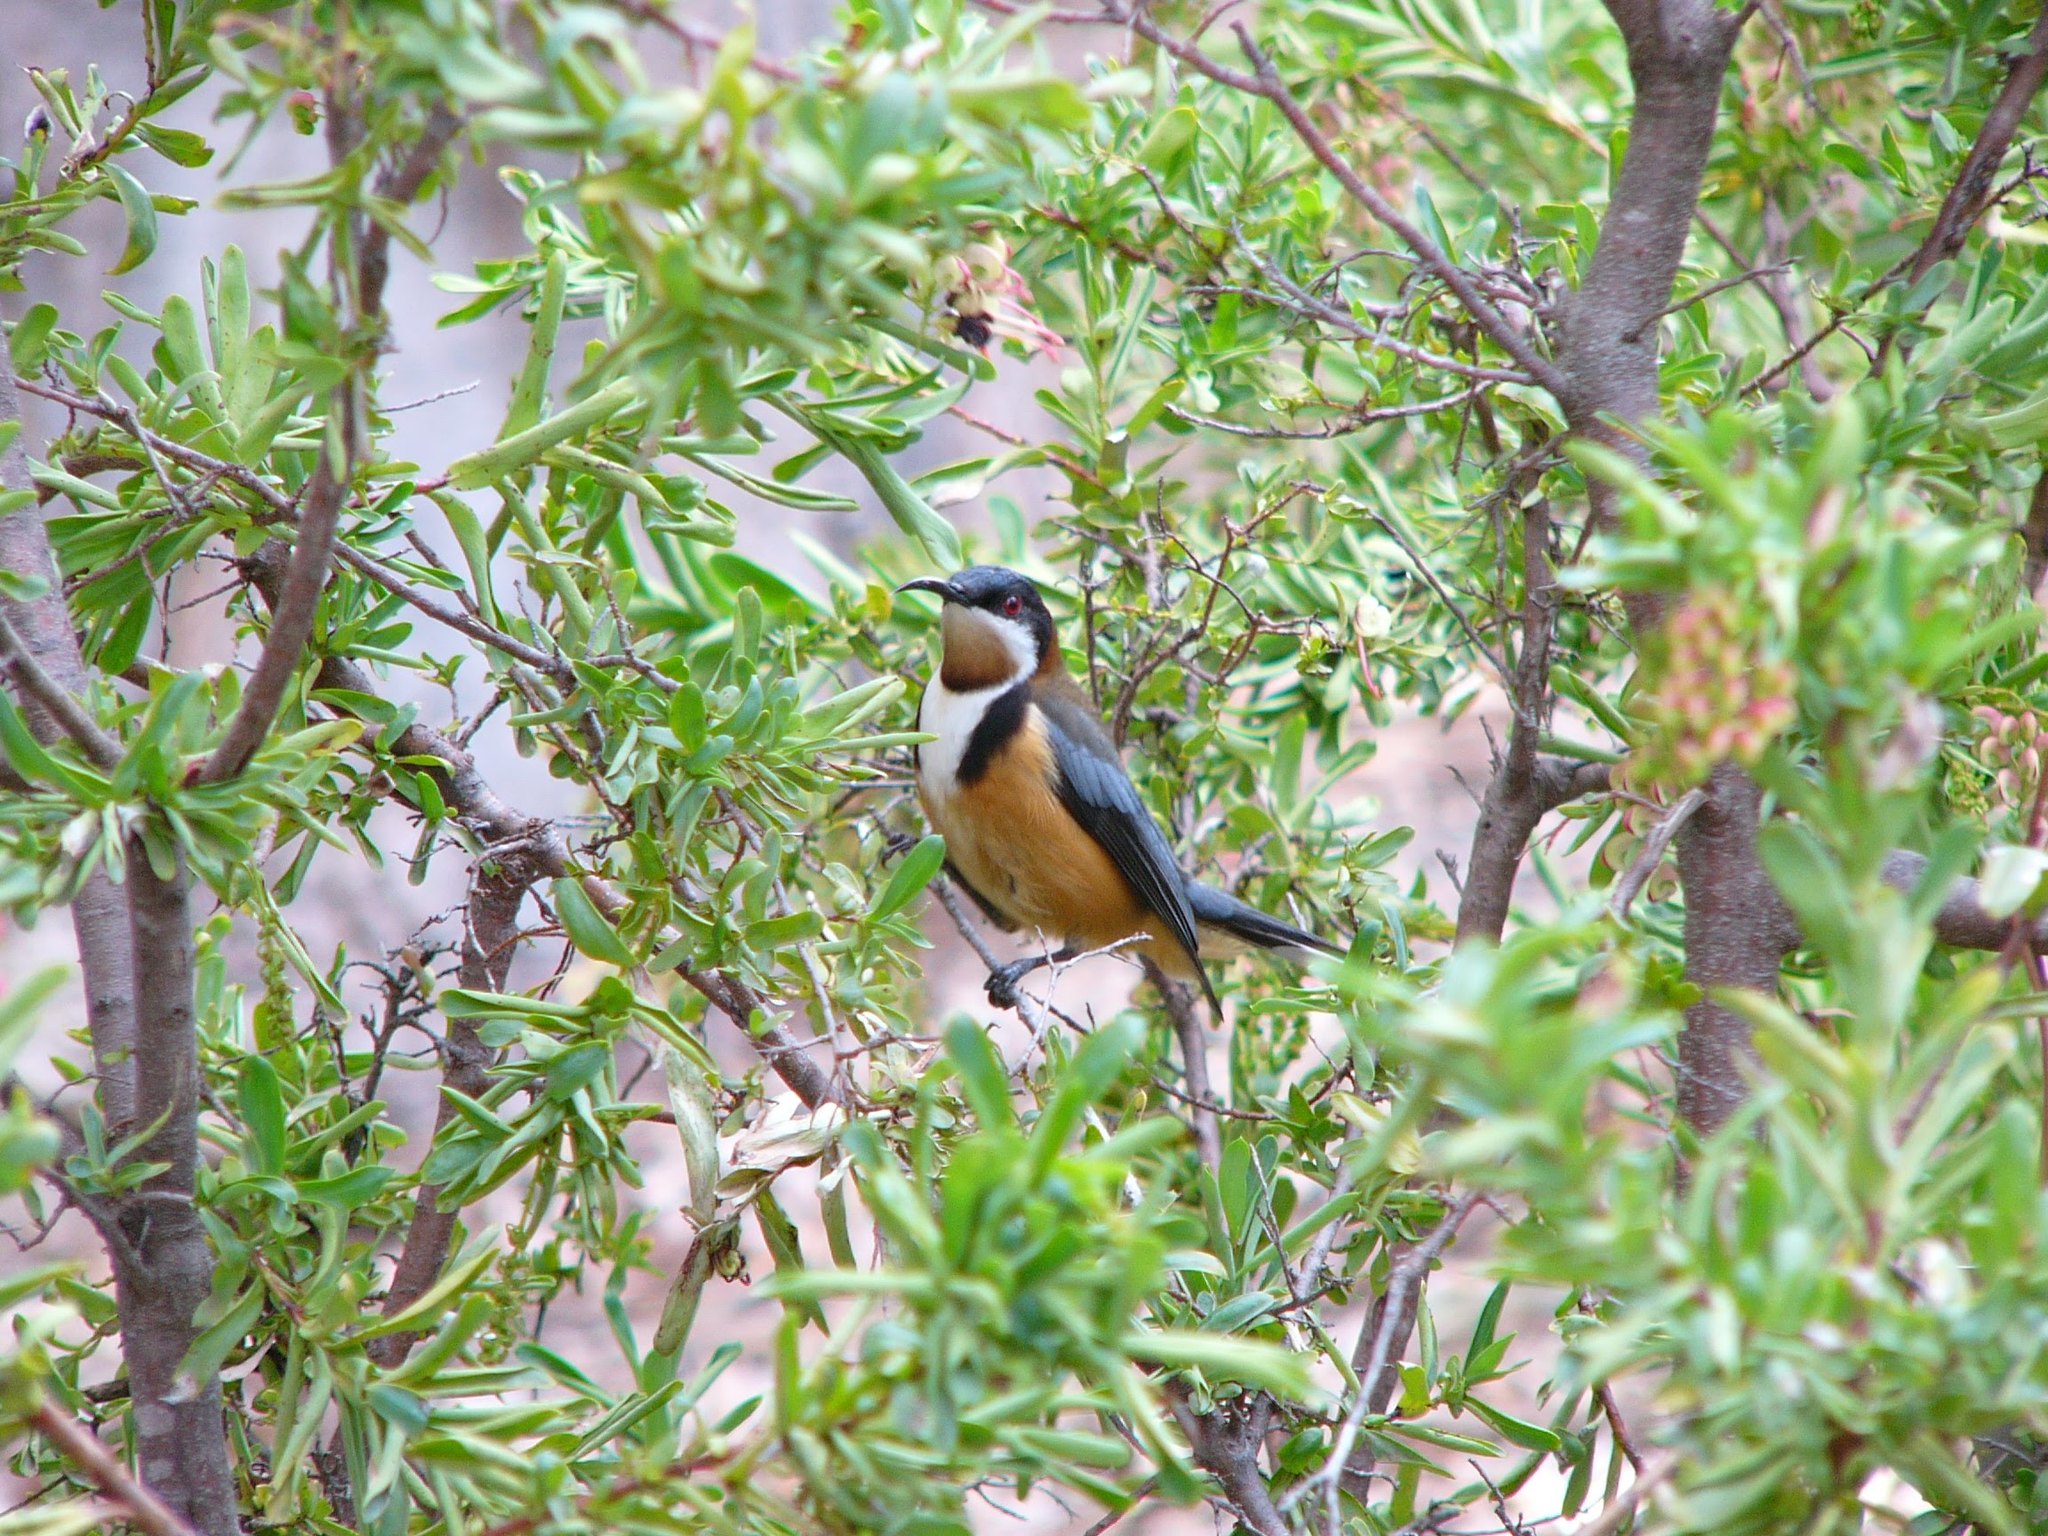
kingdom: Animalia
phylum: Chordata
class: Aves
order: Passeriformes
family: Meliphagidae
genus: Acanthorhynchus
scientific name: Acanthorhynchus tenuirostris
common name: Eastern spinebill
